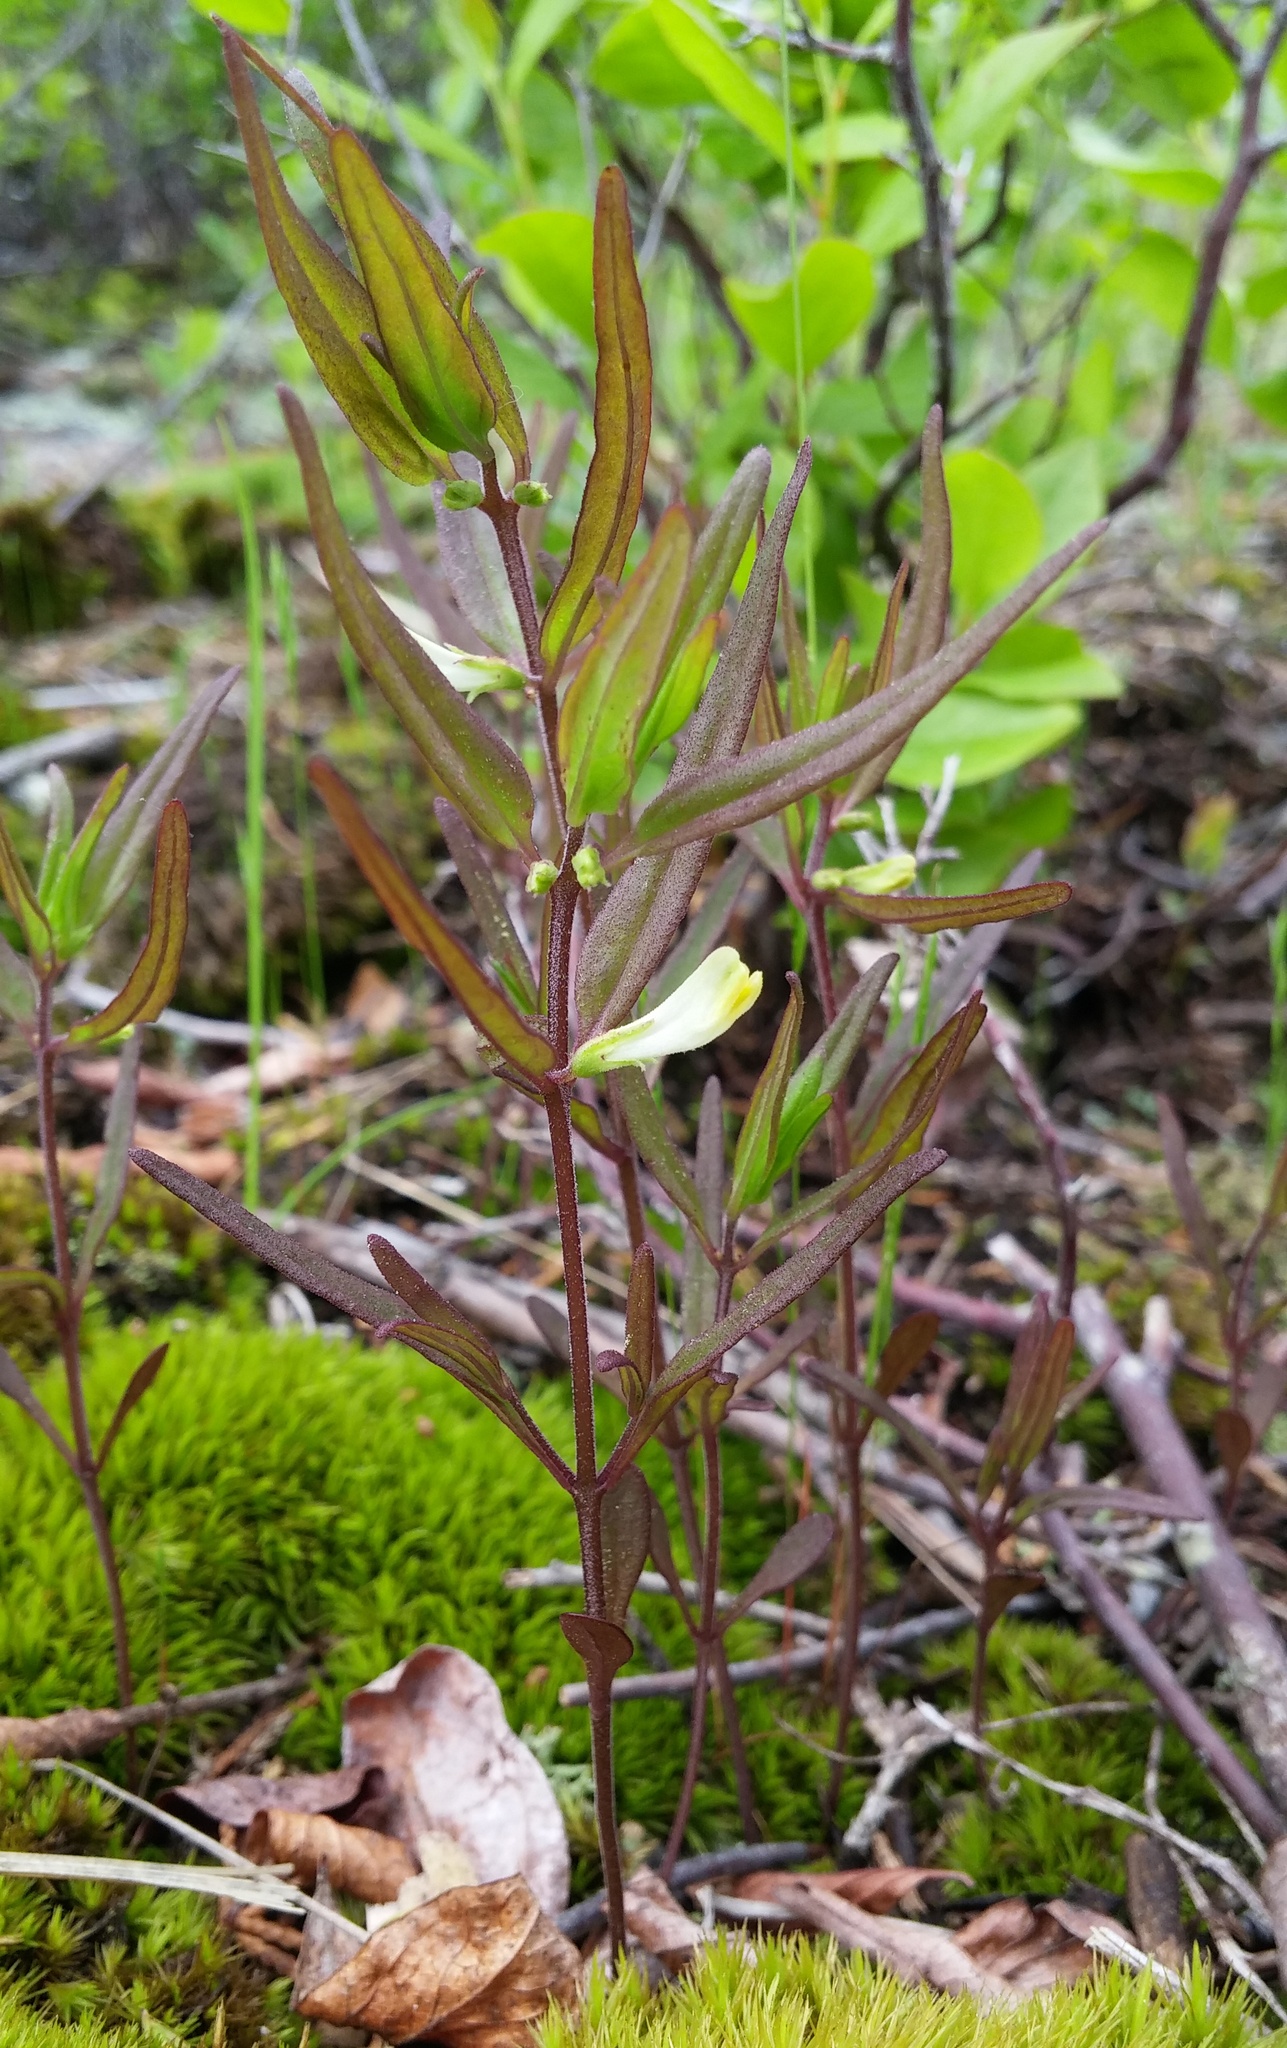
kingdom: Plantae
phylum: Tracheophyta
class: Magnoliopsida
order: Lamiales
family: Orobanchaceae
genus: Melampyrum
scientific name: Melampyrum lineare
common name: American cow-wheat
